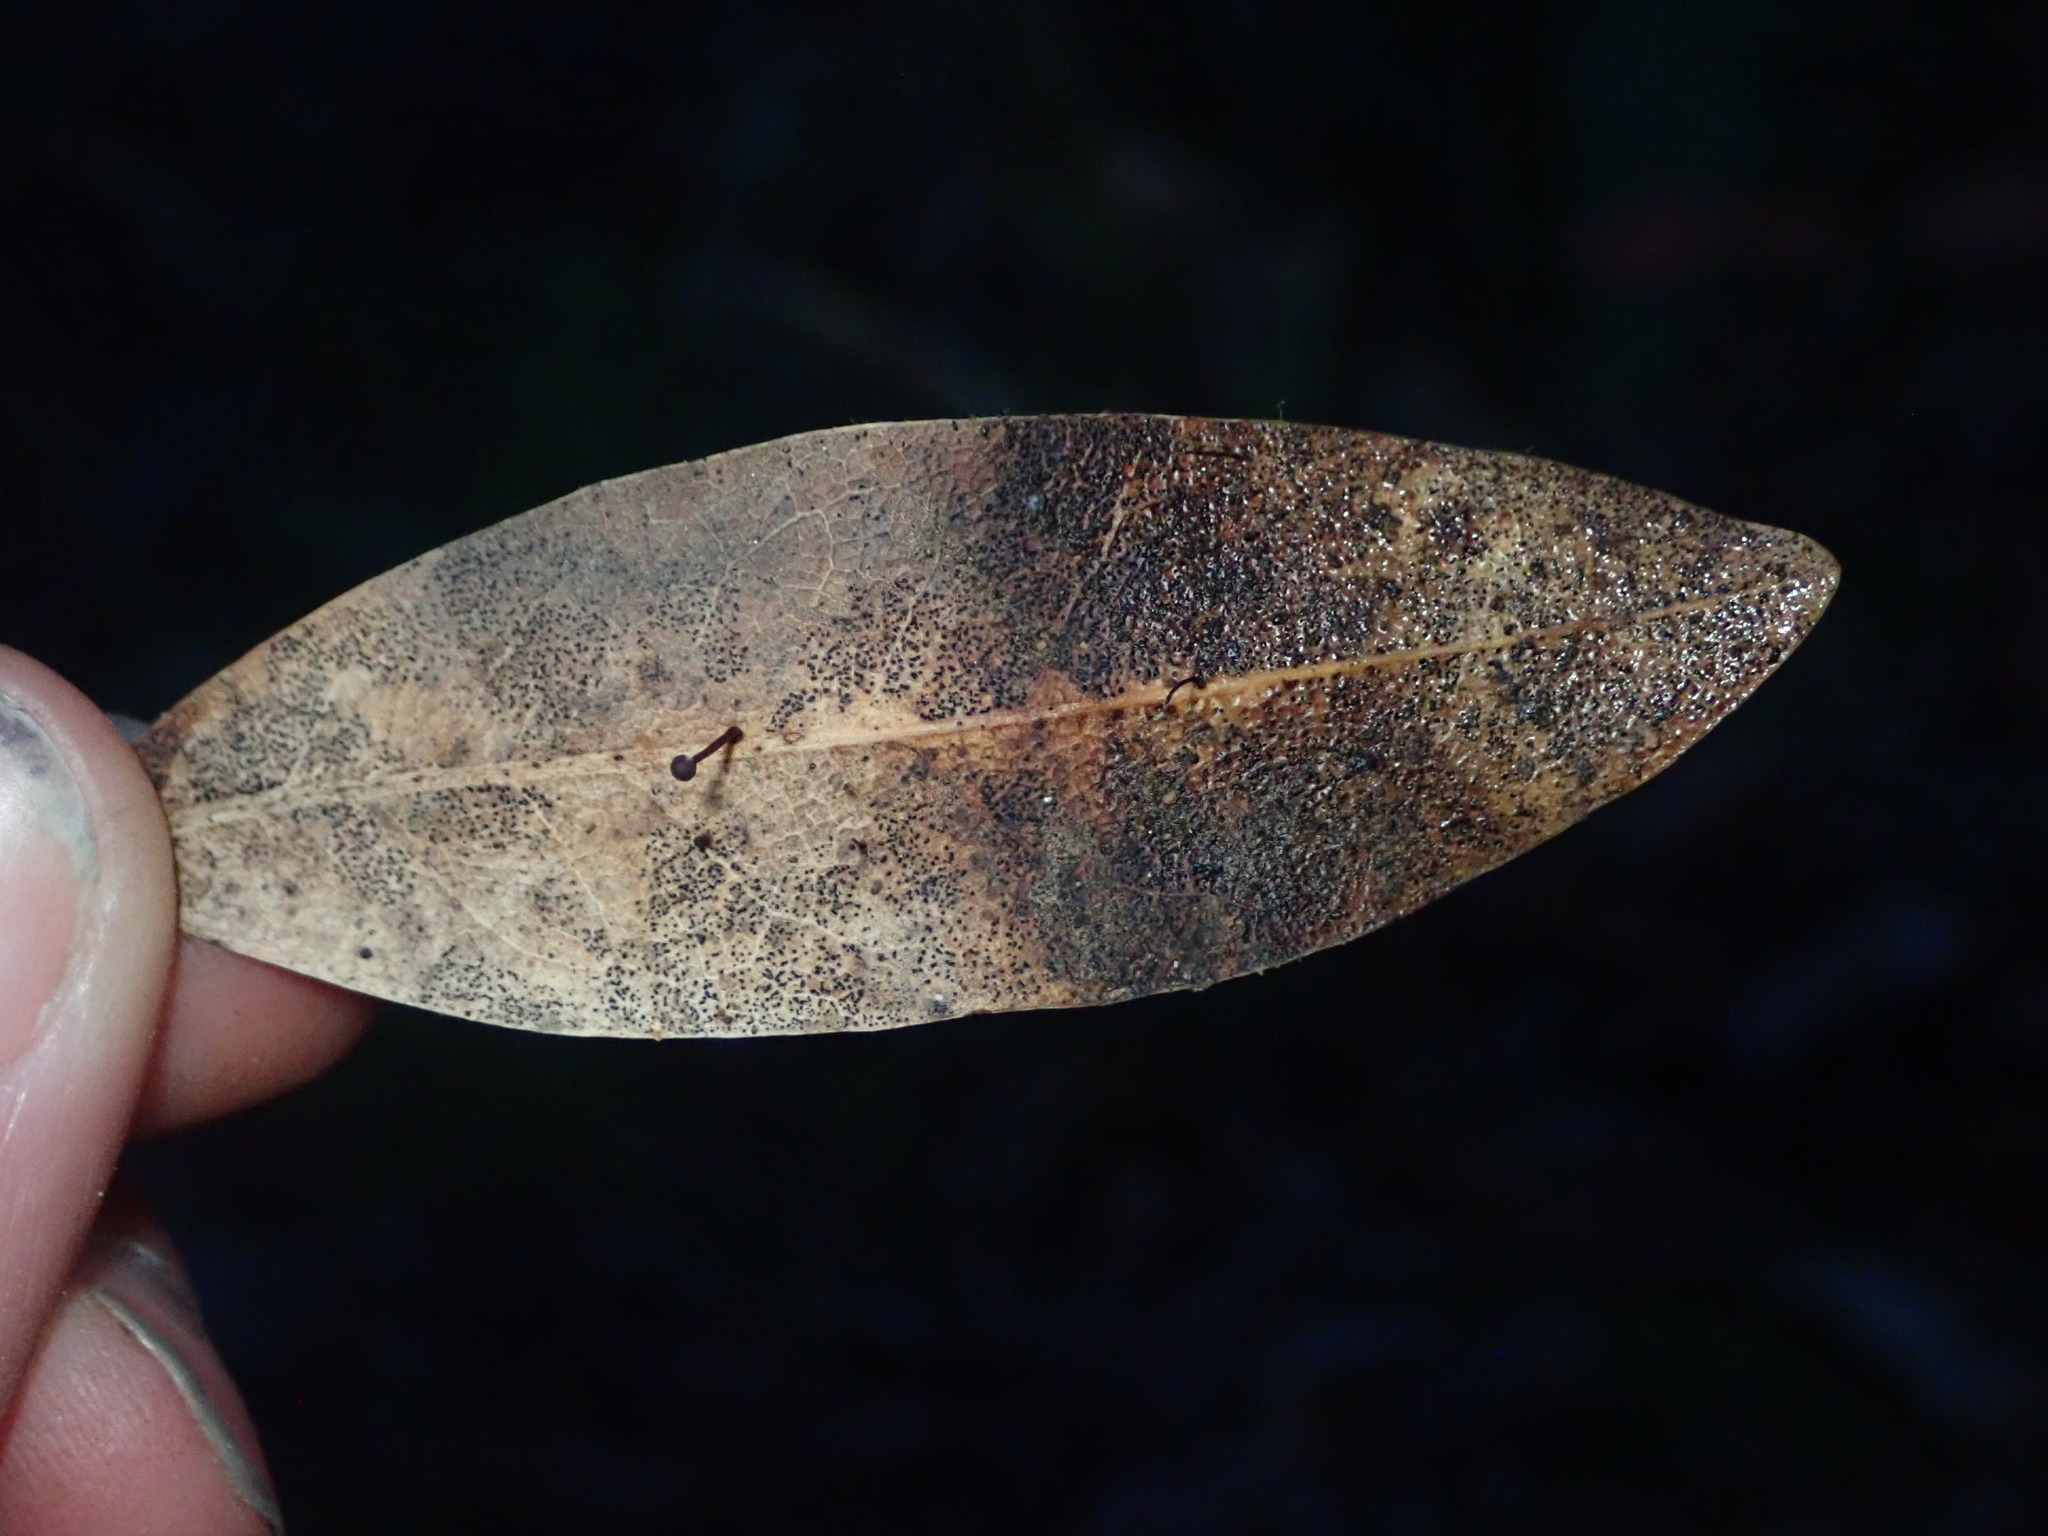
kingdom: Plantae
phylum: Tracheophyta
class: Magnoliopsida
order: Laurales
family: Lauraceae
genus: Umbellularia
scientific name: Umbellularia californica
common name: California bay
